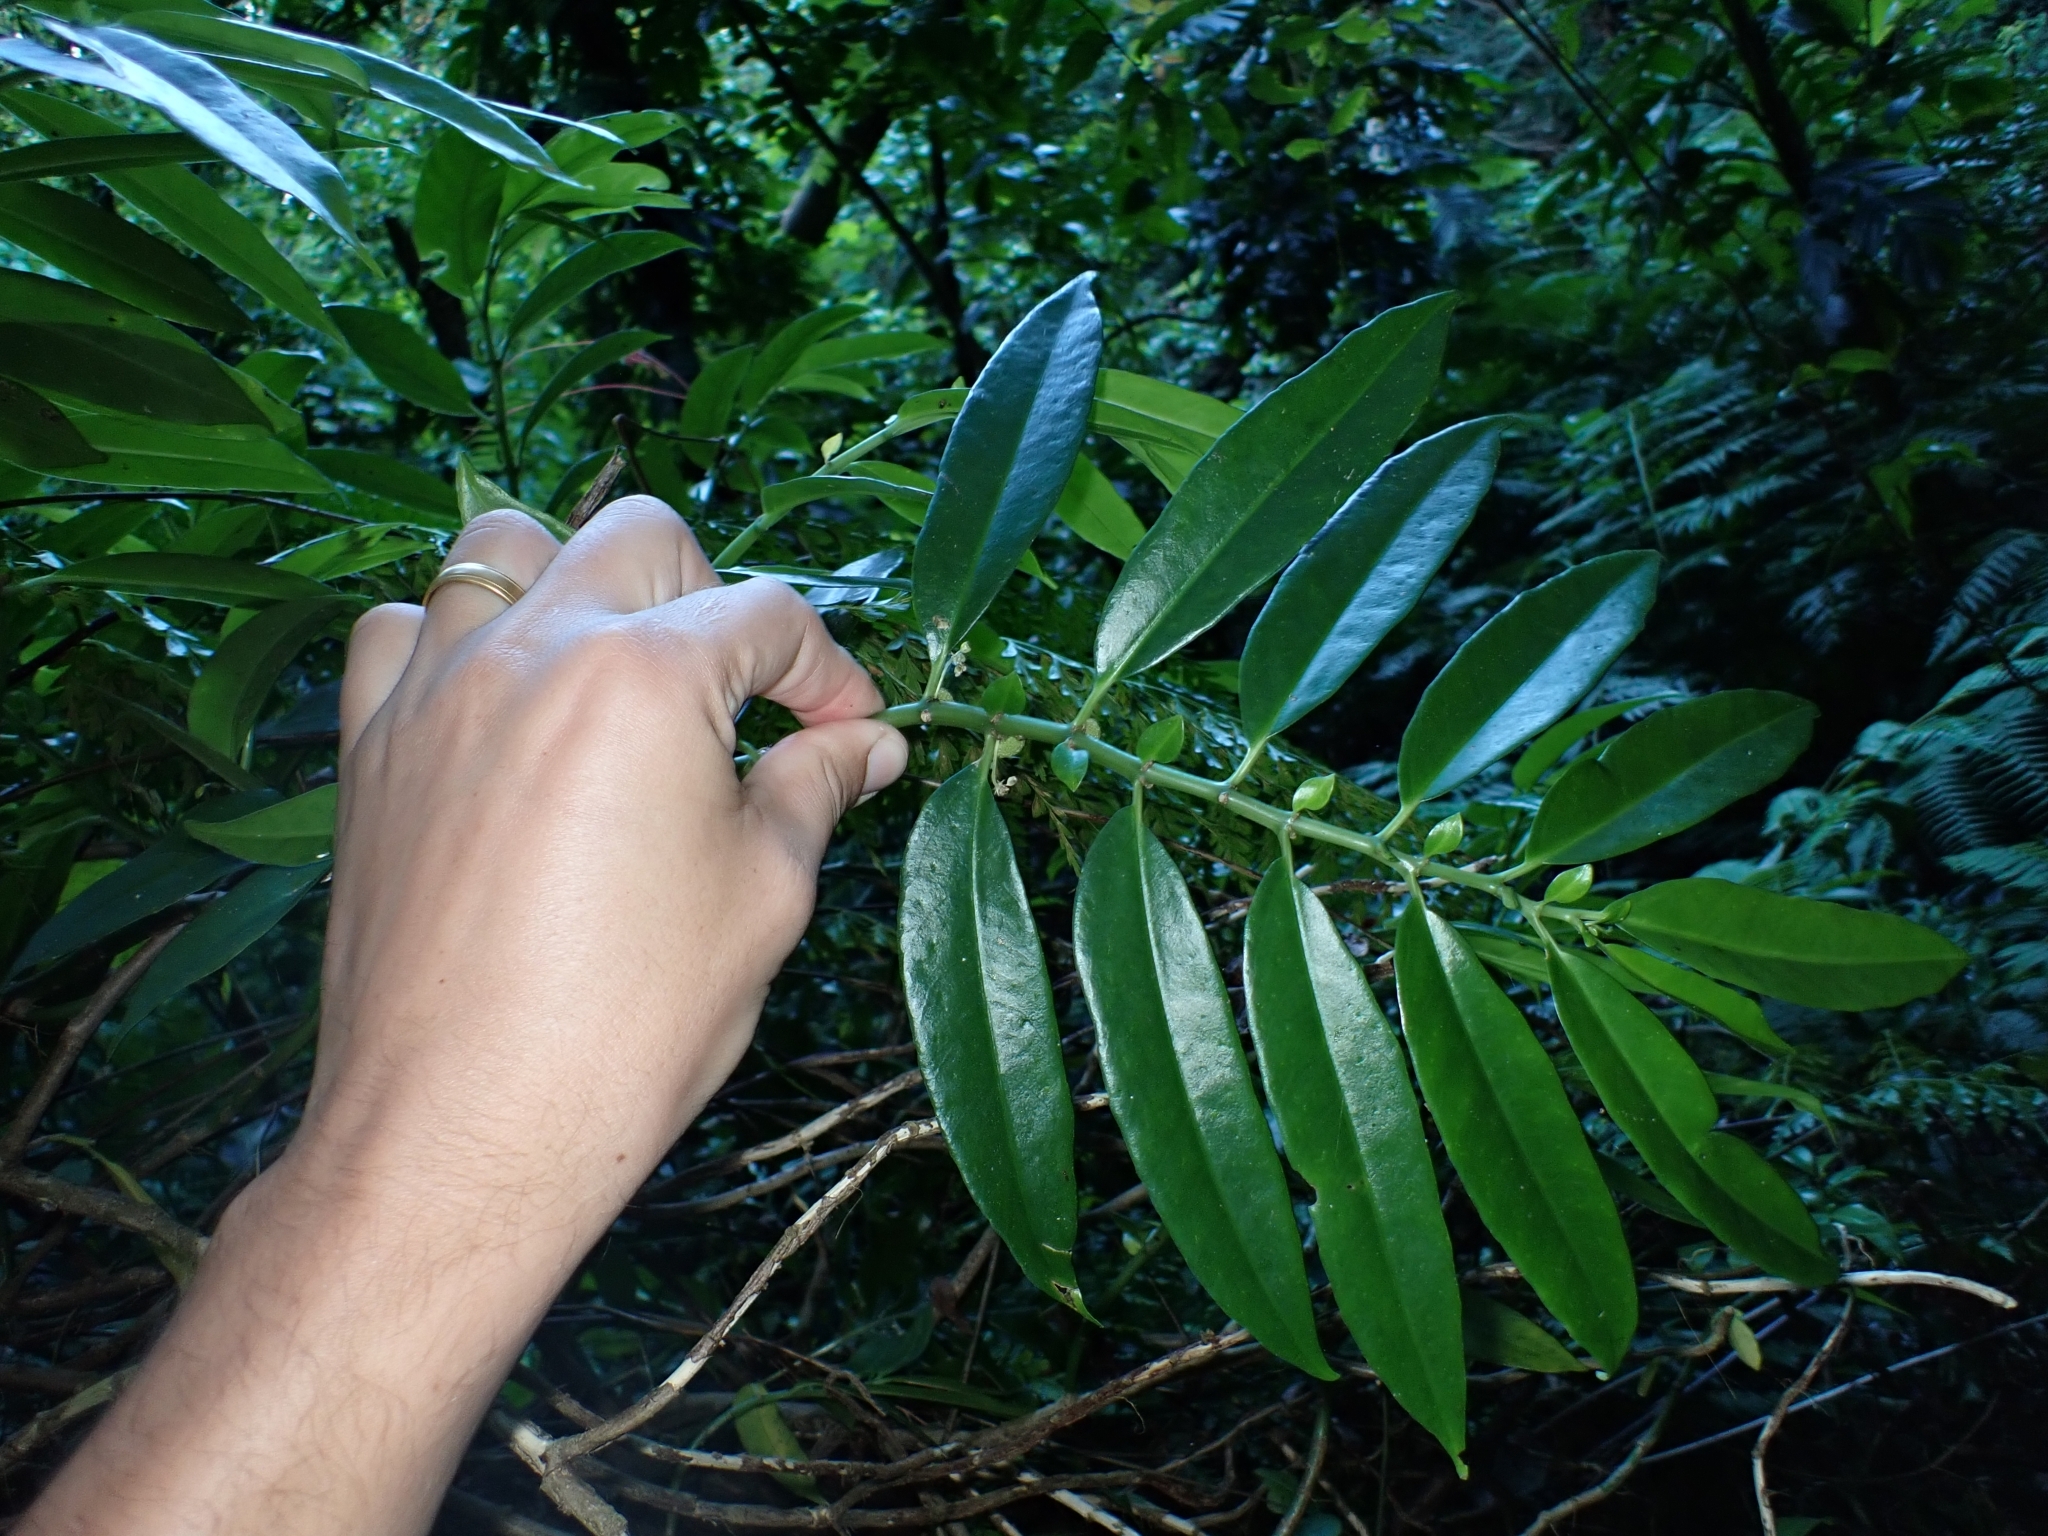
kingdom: Plantae
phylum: Tracheophyta
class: Magnoliopsida
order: Rosales
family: Urticaceae
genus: Procris
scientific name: Procris pedunculata
